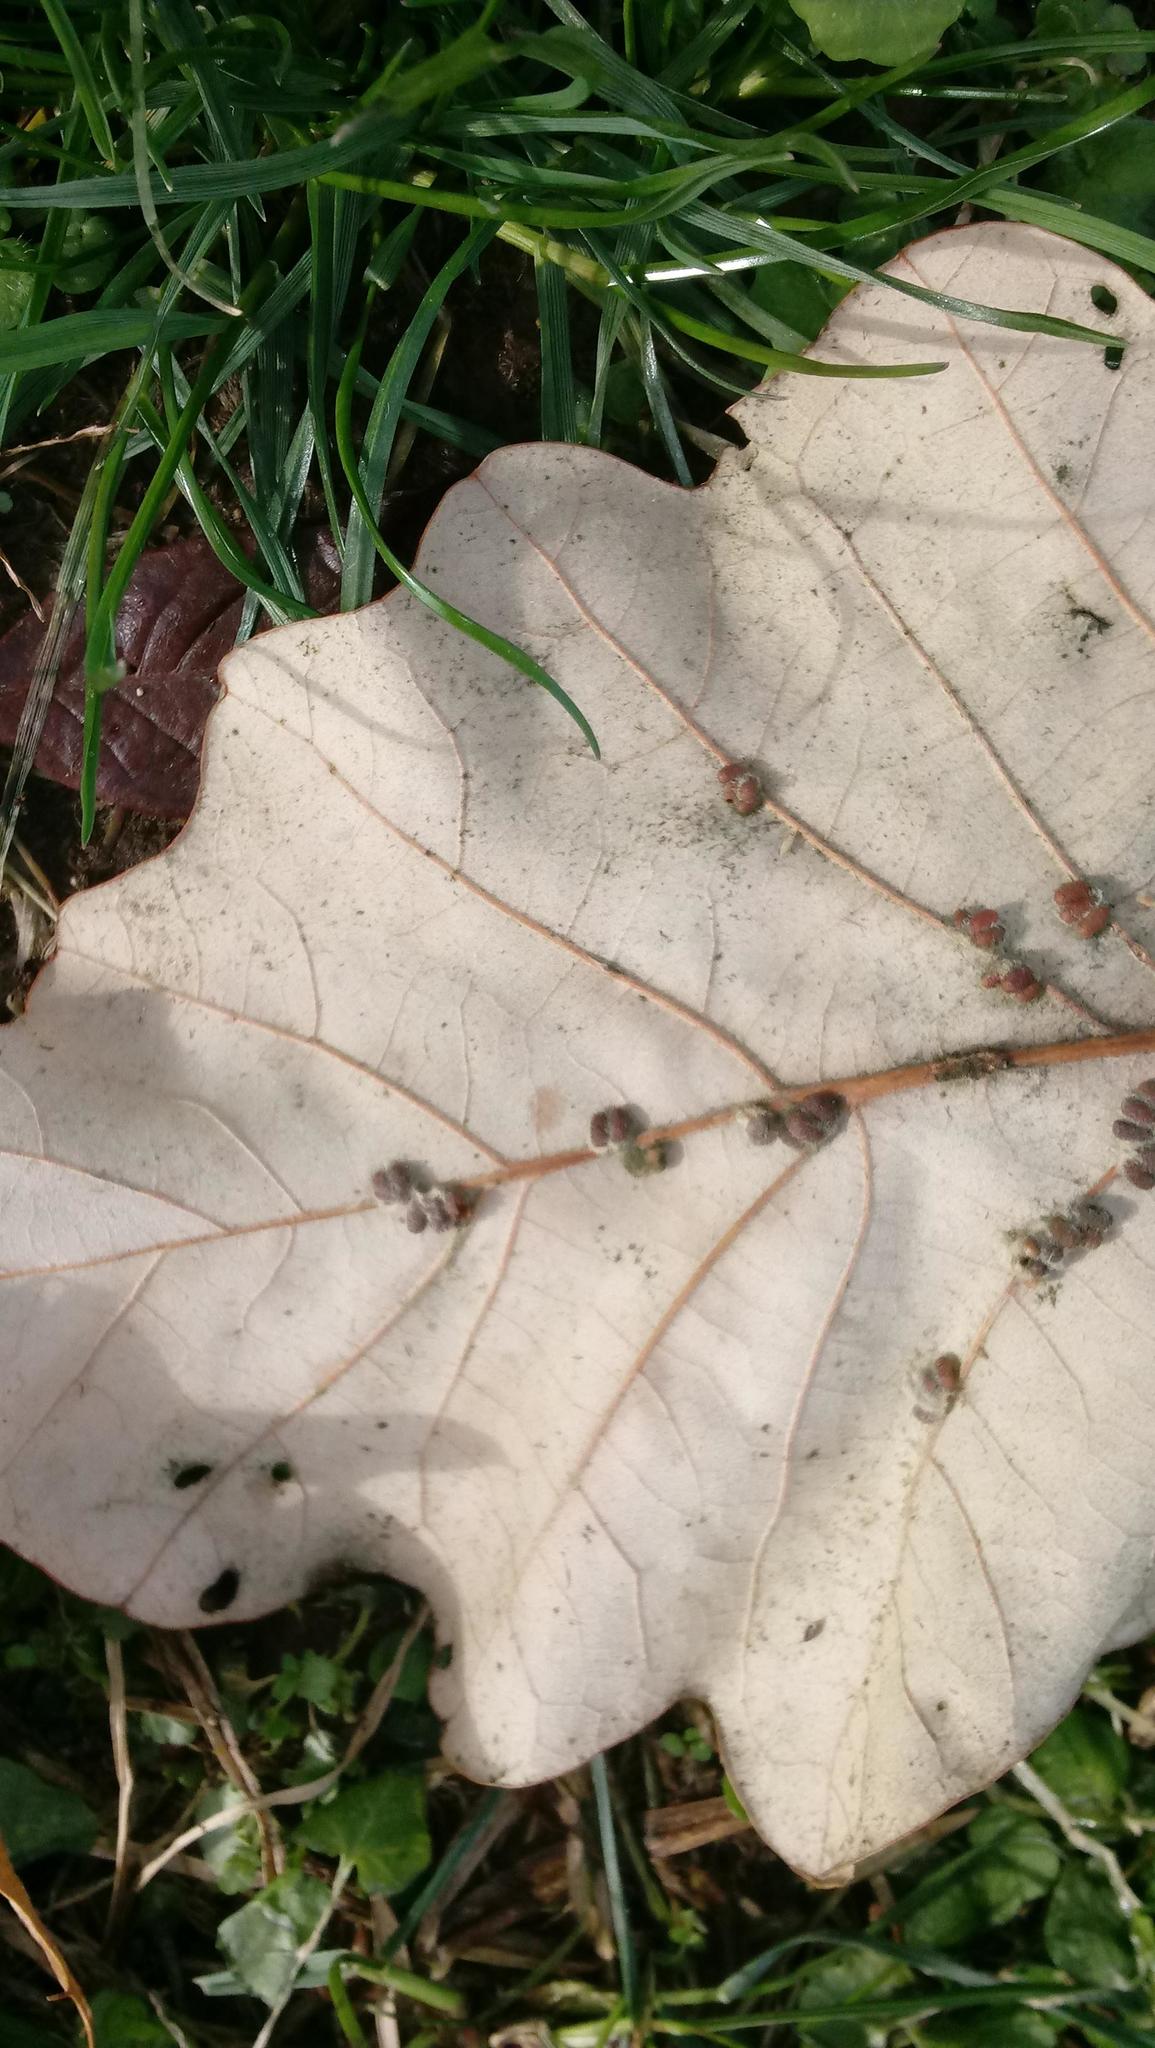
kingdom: Animalia
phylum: Arthropoda
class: Insecta
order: Hymenoptera
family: Cynipidae
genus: Andricus
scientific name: Andricus Druon ignotum
